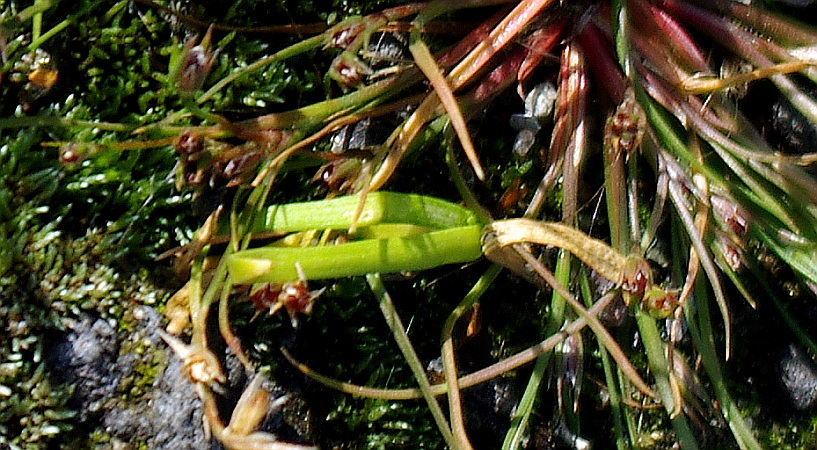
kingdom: Plantae
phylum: Tracheophyta
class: Magnoliopsida
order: Sapindales
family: Sapindaceae
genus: Acer
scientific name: Acer negundo
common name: Ashleaf maple
